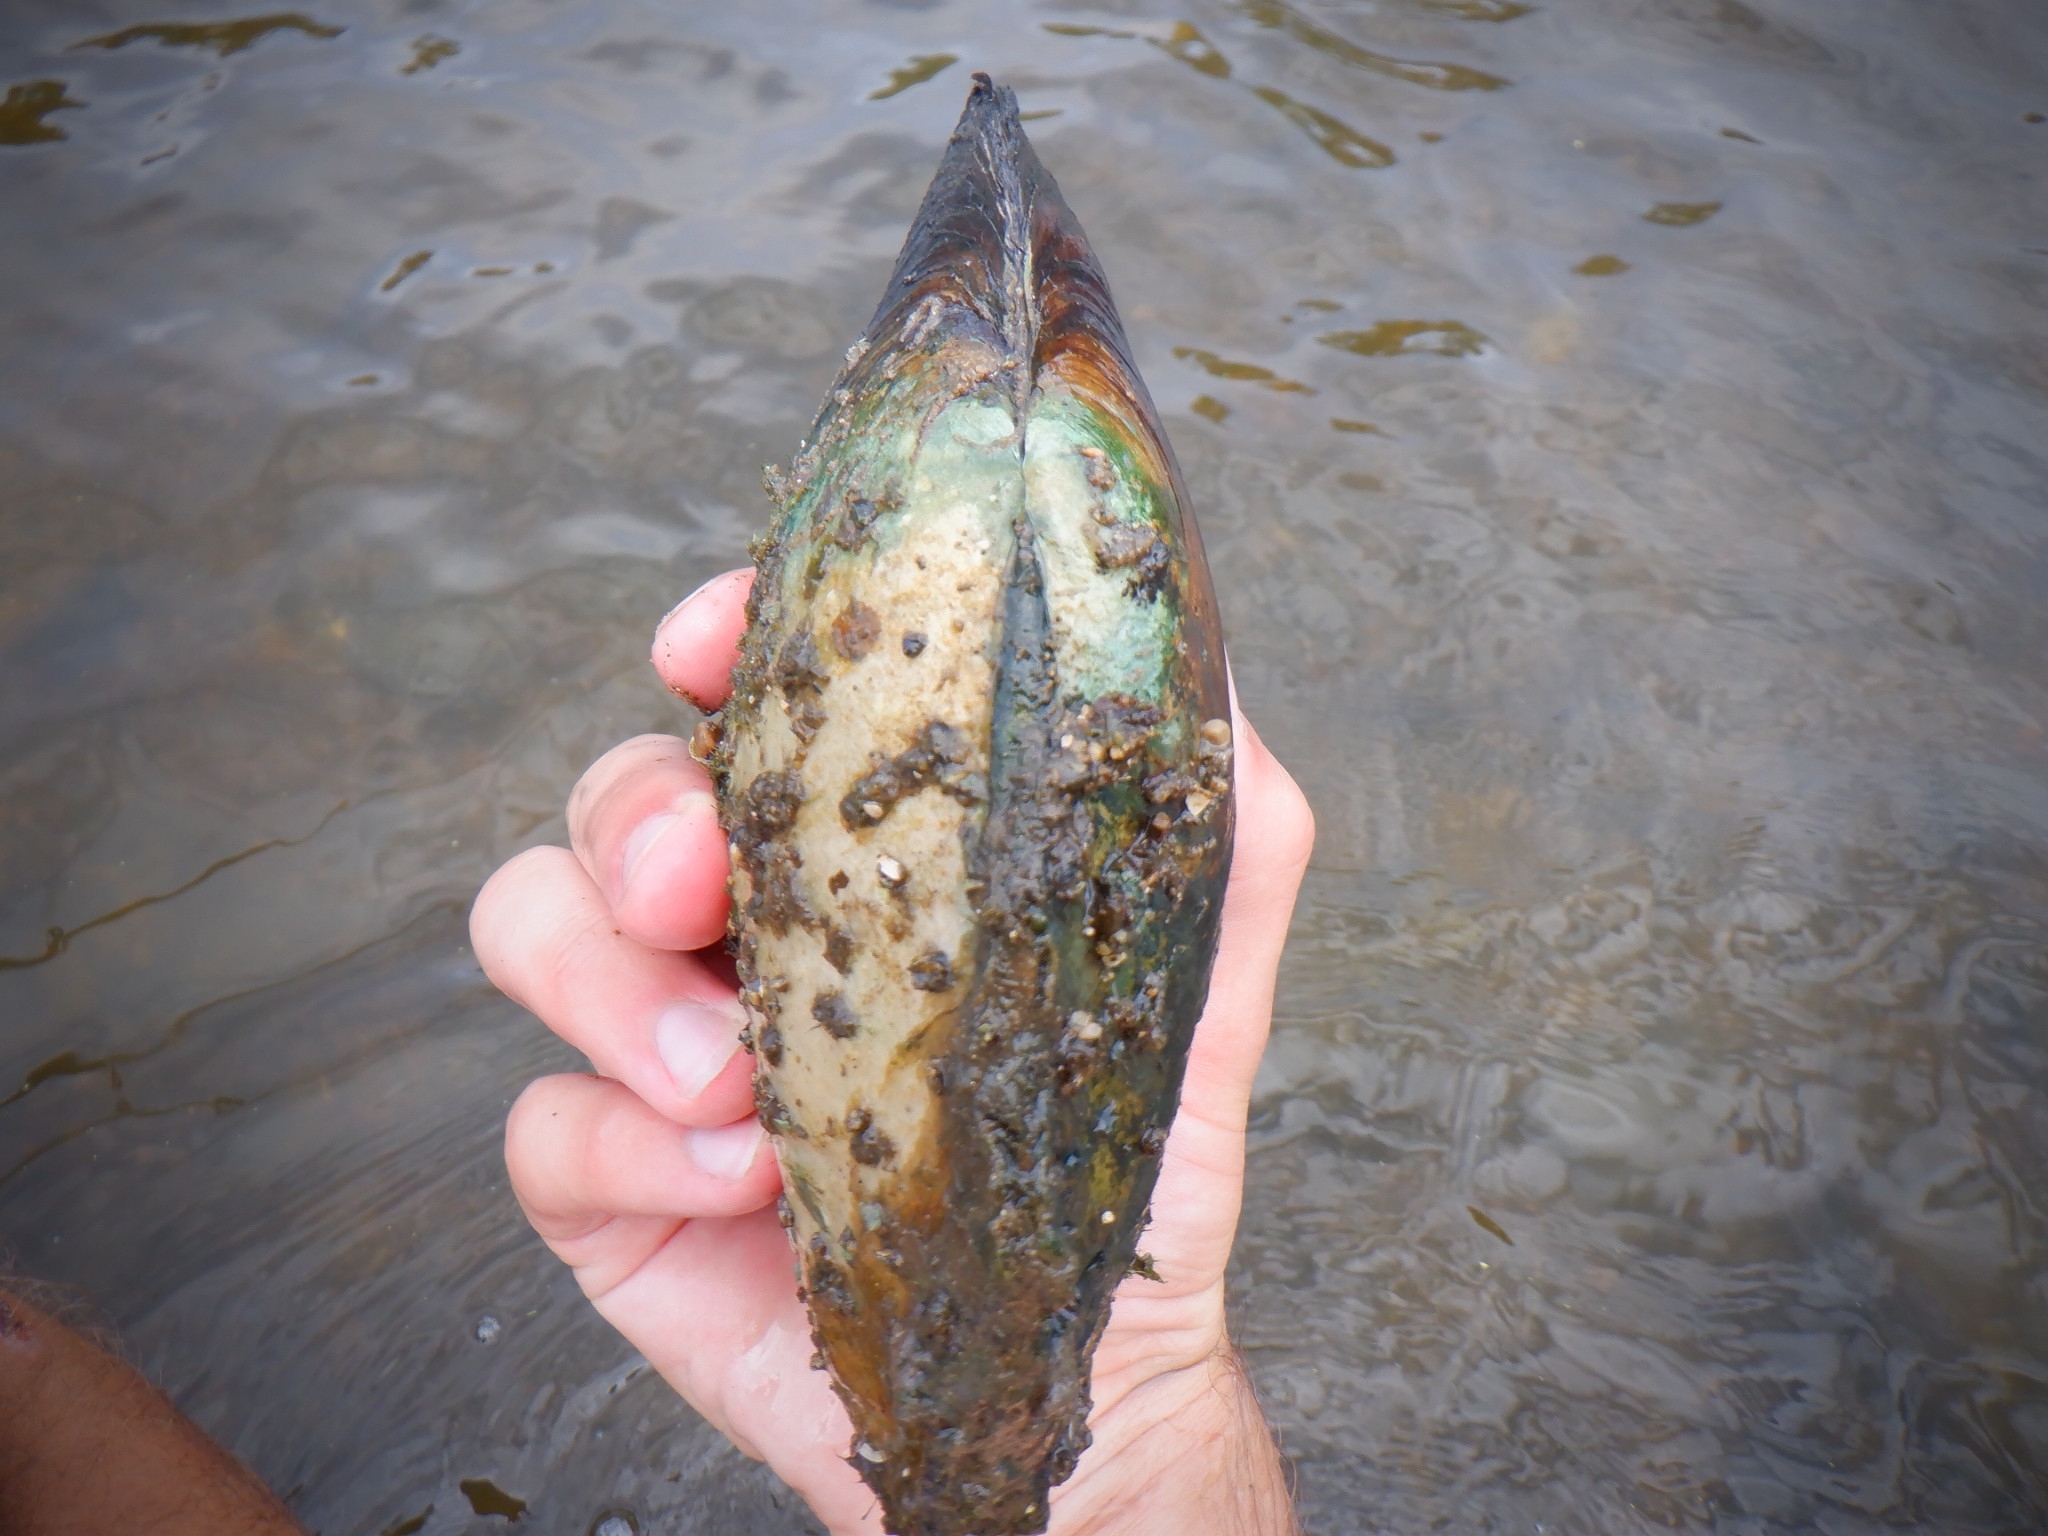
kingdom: Animalia
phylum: Mollusca
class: Bivalvia
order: Unionida
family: Unionidae
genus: Lasmigona
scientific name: Lasmigona complanata
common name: White heelsplitter
